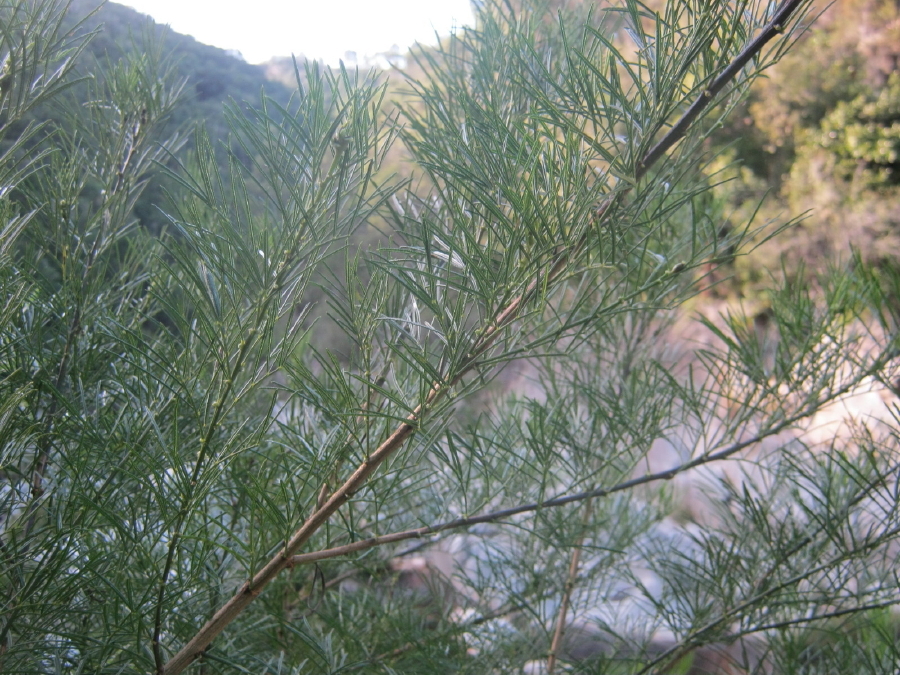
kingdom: Plantae
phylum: Tracheophyta
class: Magnoliopsida
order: Fabales
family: Fabaceae
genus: Psoralea
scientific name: Psoralea affinis
